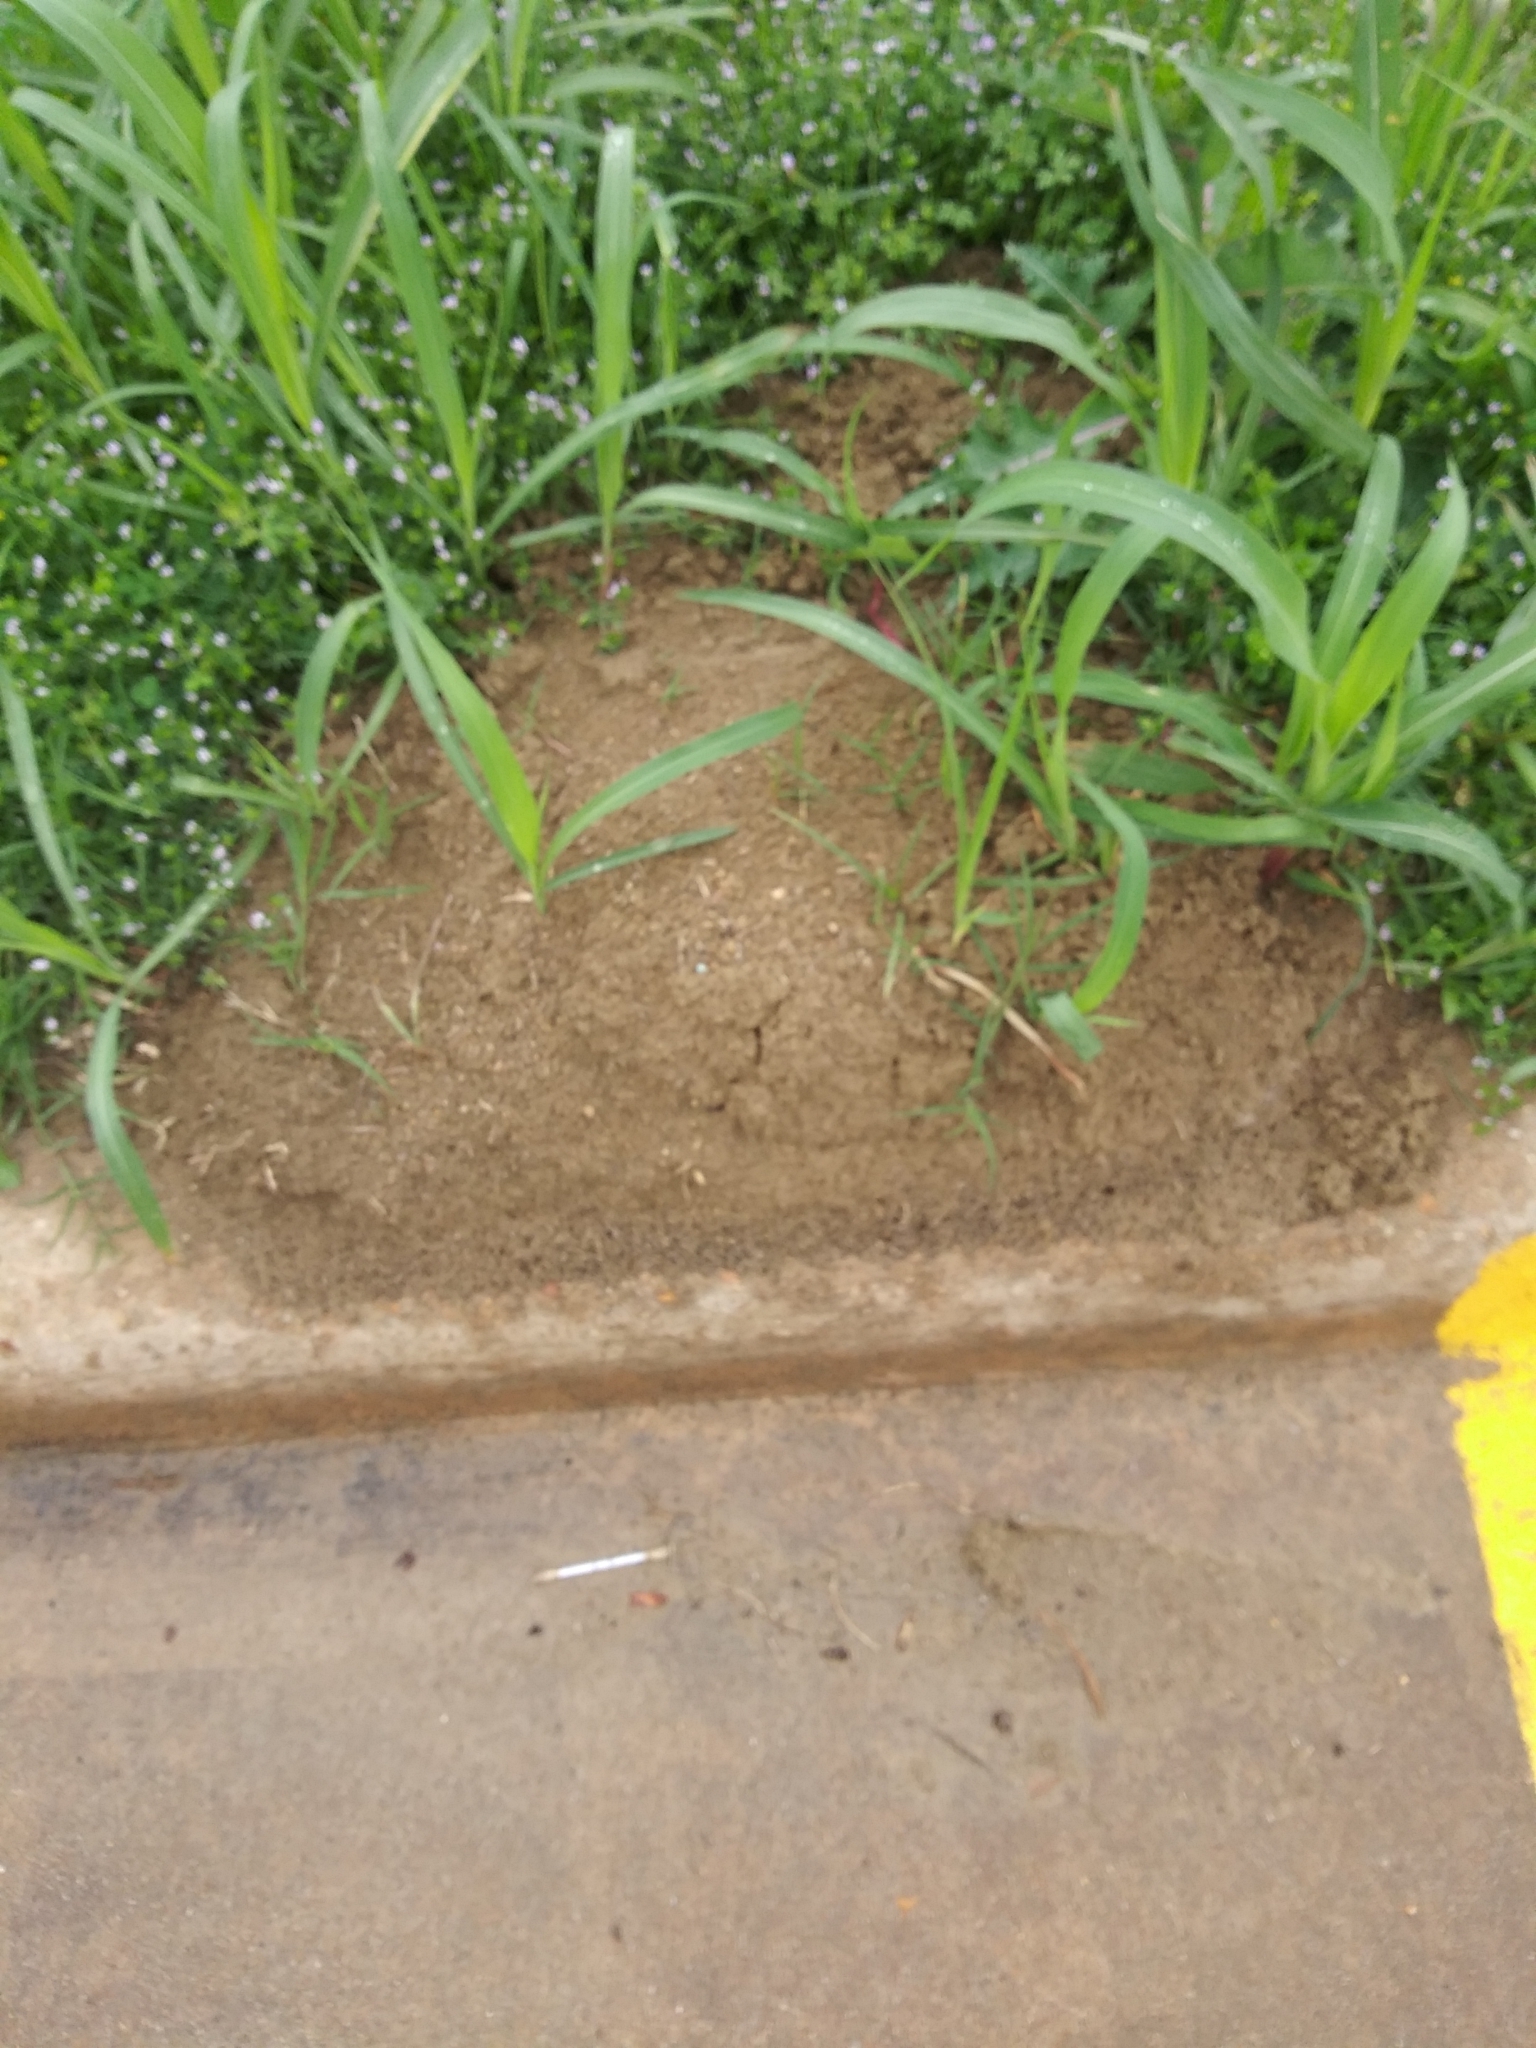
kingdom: Animalia
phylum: Arthropoda
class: Insecta
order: Hymenoptera
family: Formicidae
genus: Solenopsis
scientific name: Solenopsis invicta
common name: Red imported fire ant
